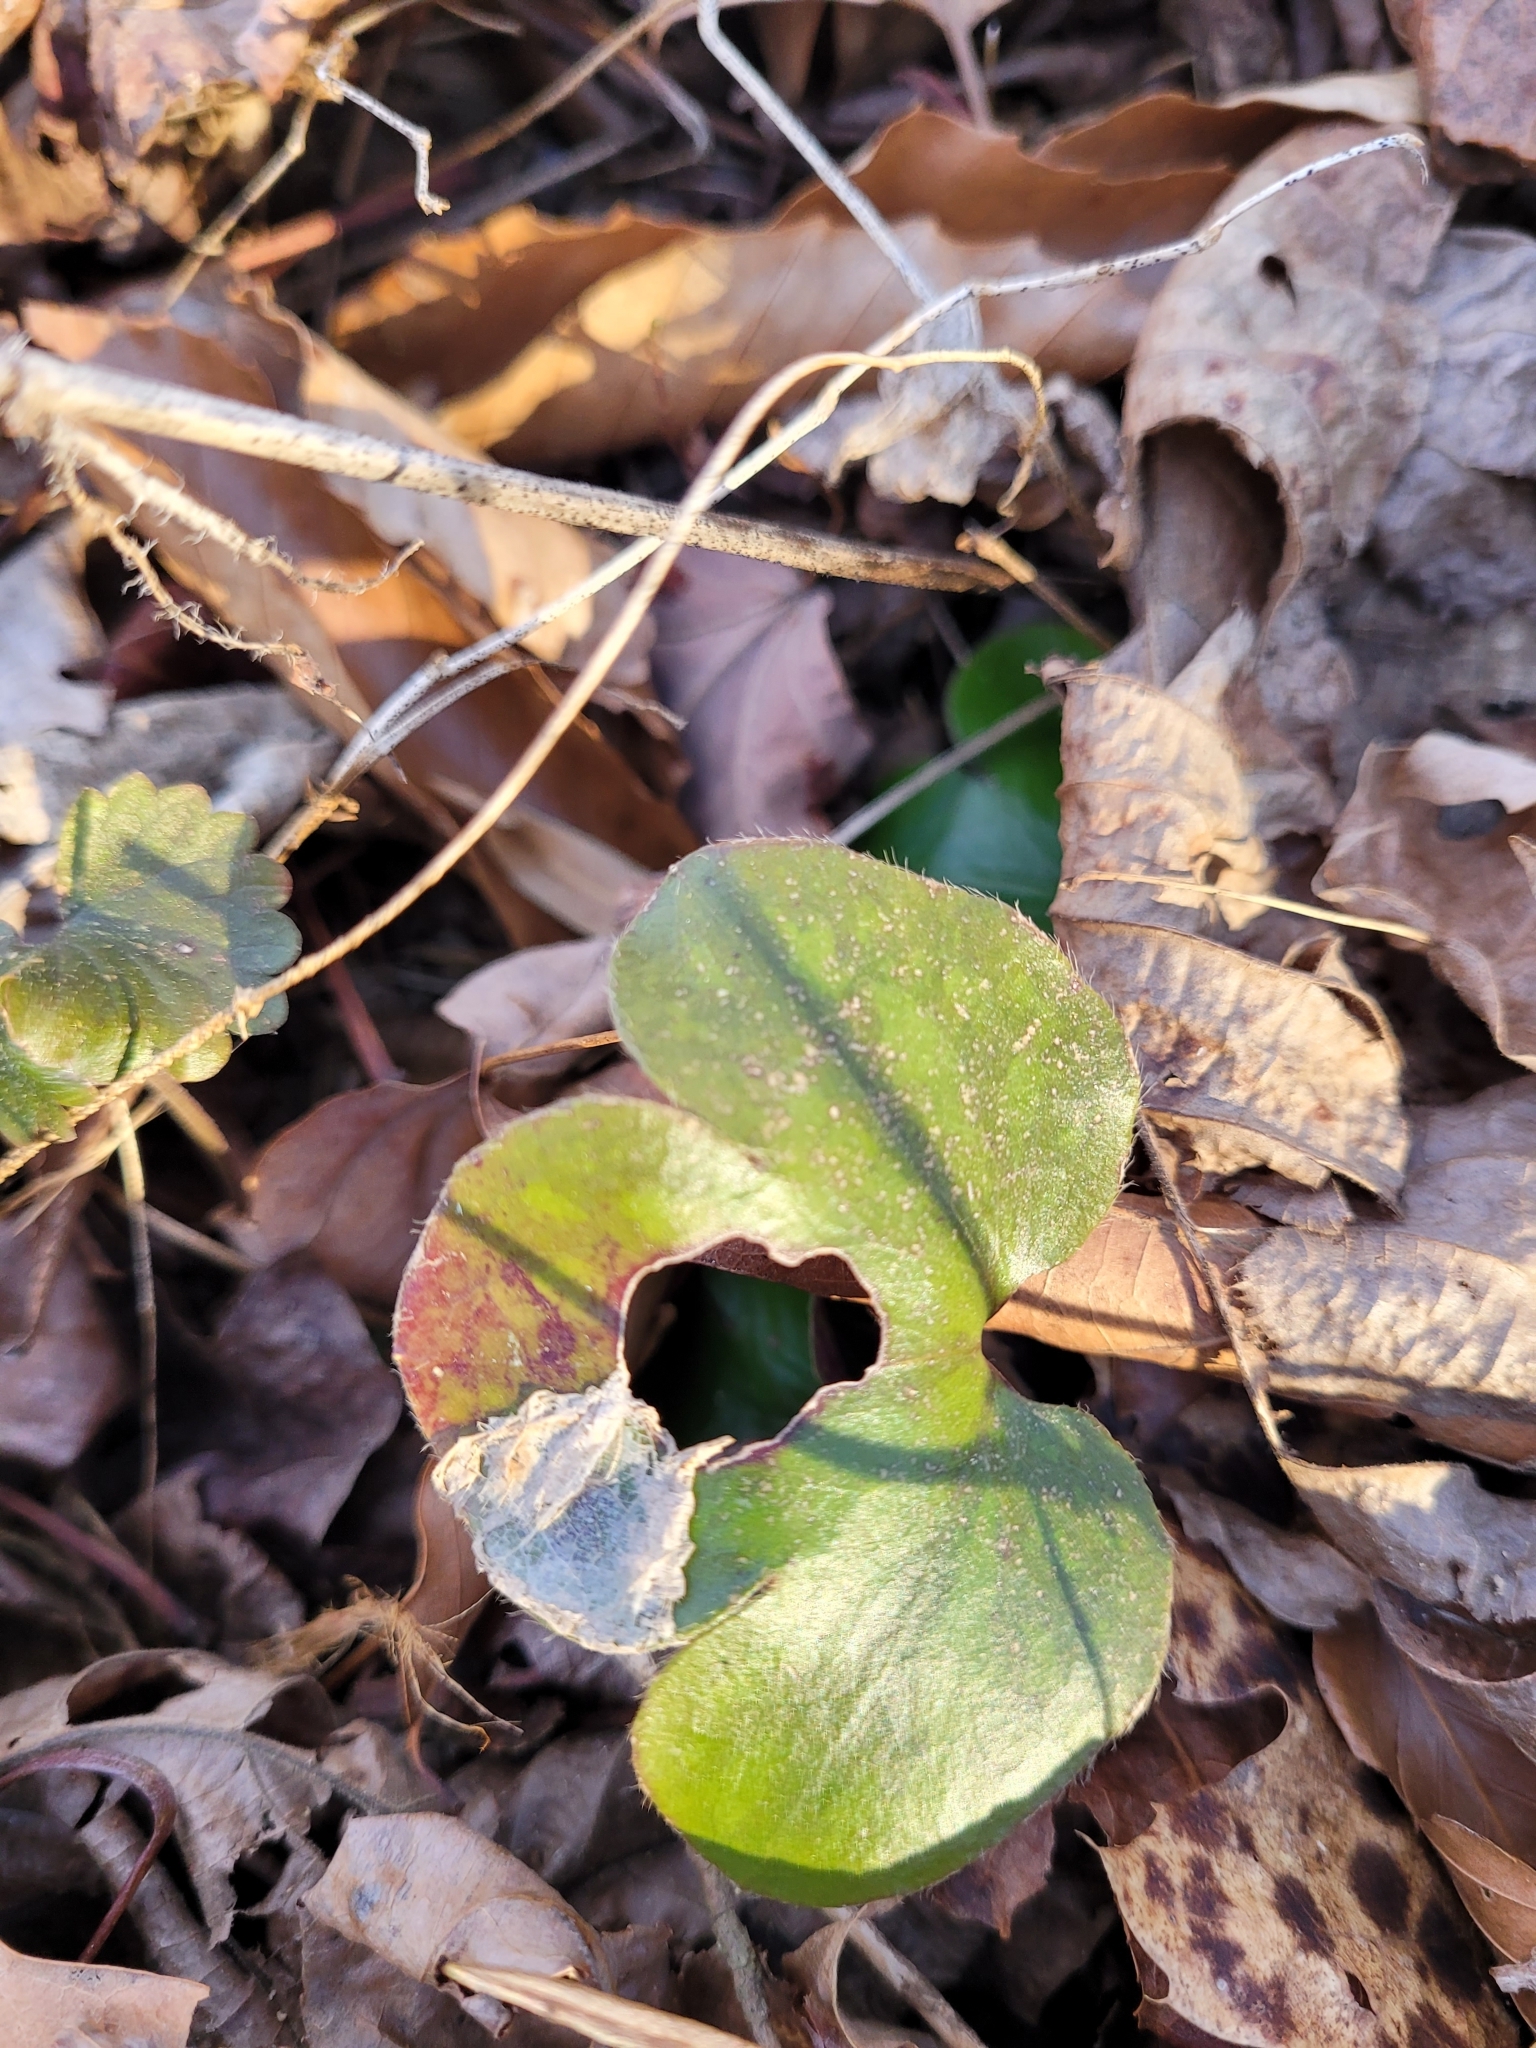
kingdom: Plantae
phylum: Tracheophyta
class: Magnoliopsida
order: Ranunculales
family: Ranunculaceae
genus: Hepatica
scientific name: Hepatica americana
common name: American hepatica
